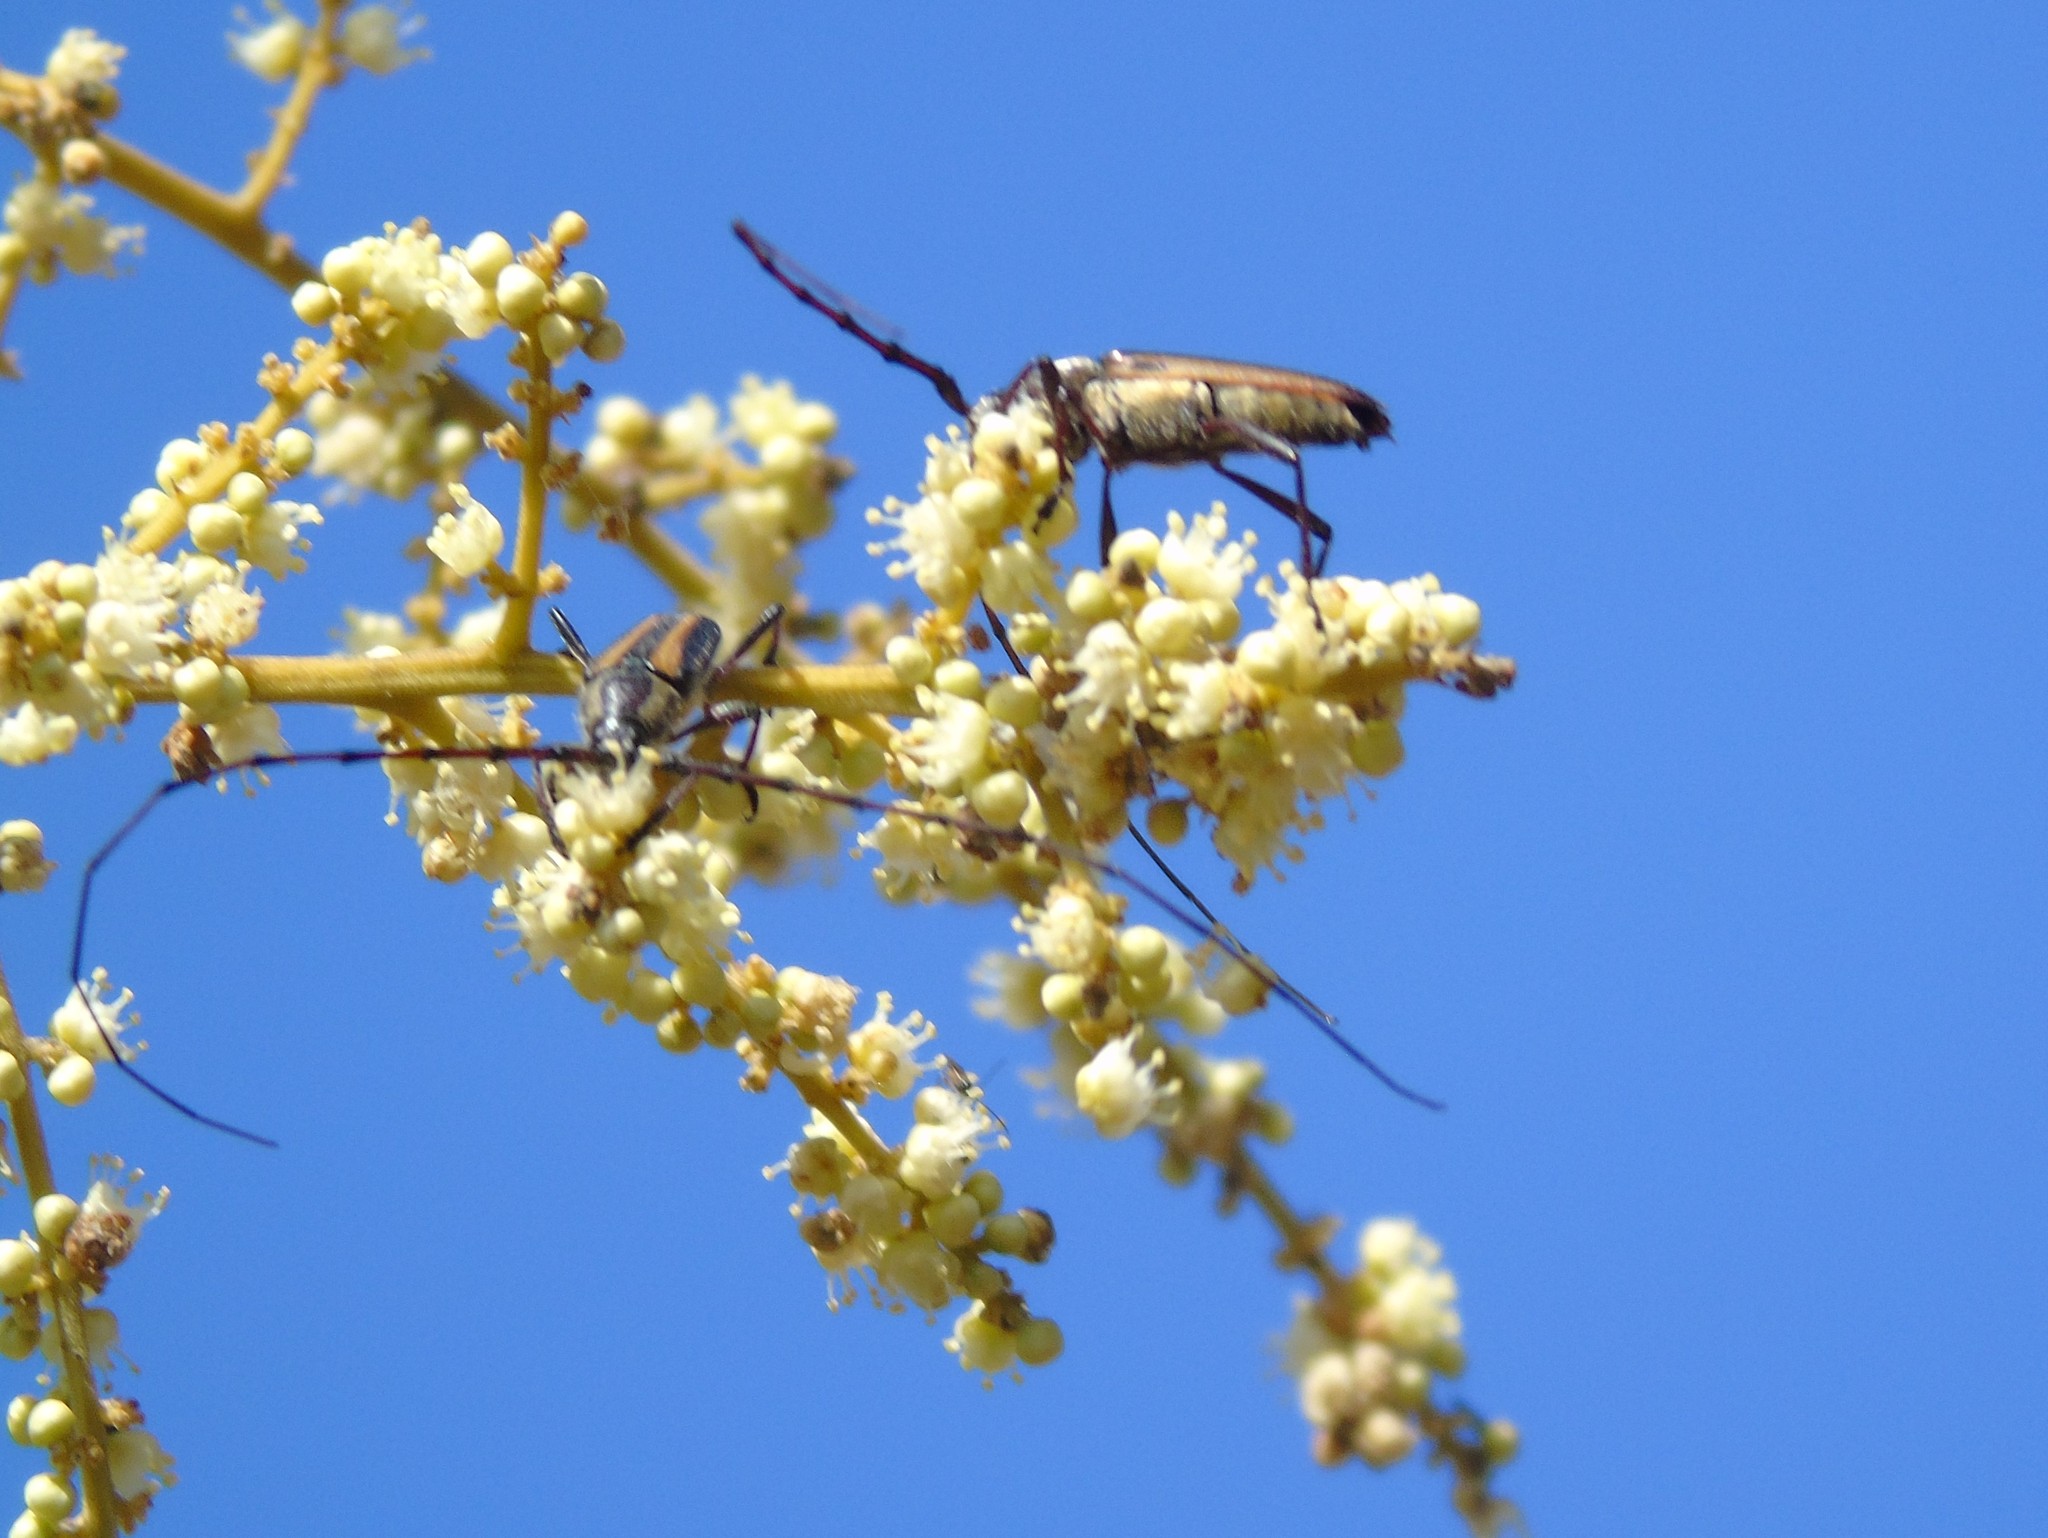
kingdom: Animalia
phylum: Arthropoda
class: Insecta
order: Coleoptera
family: Cerambycidae
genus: Sphaenothecus
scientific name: Sphaenothecus
